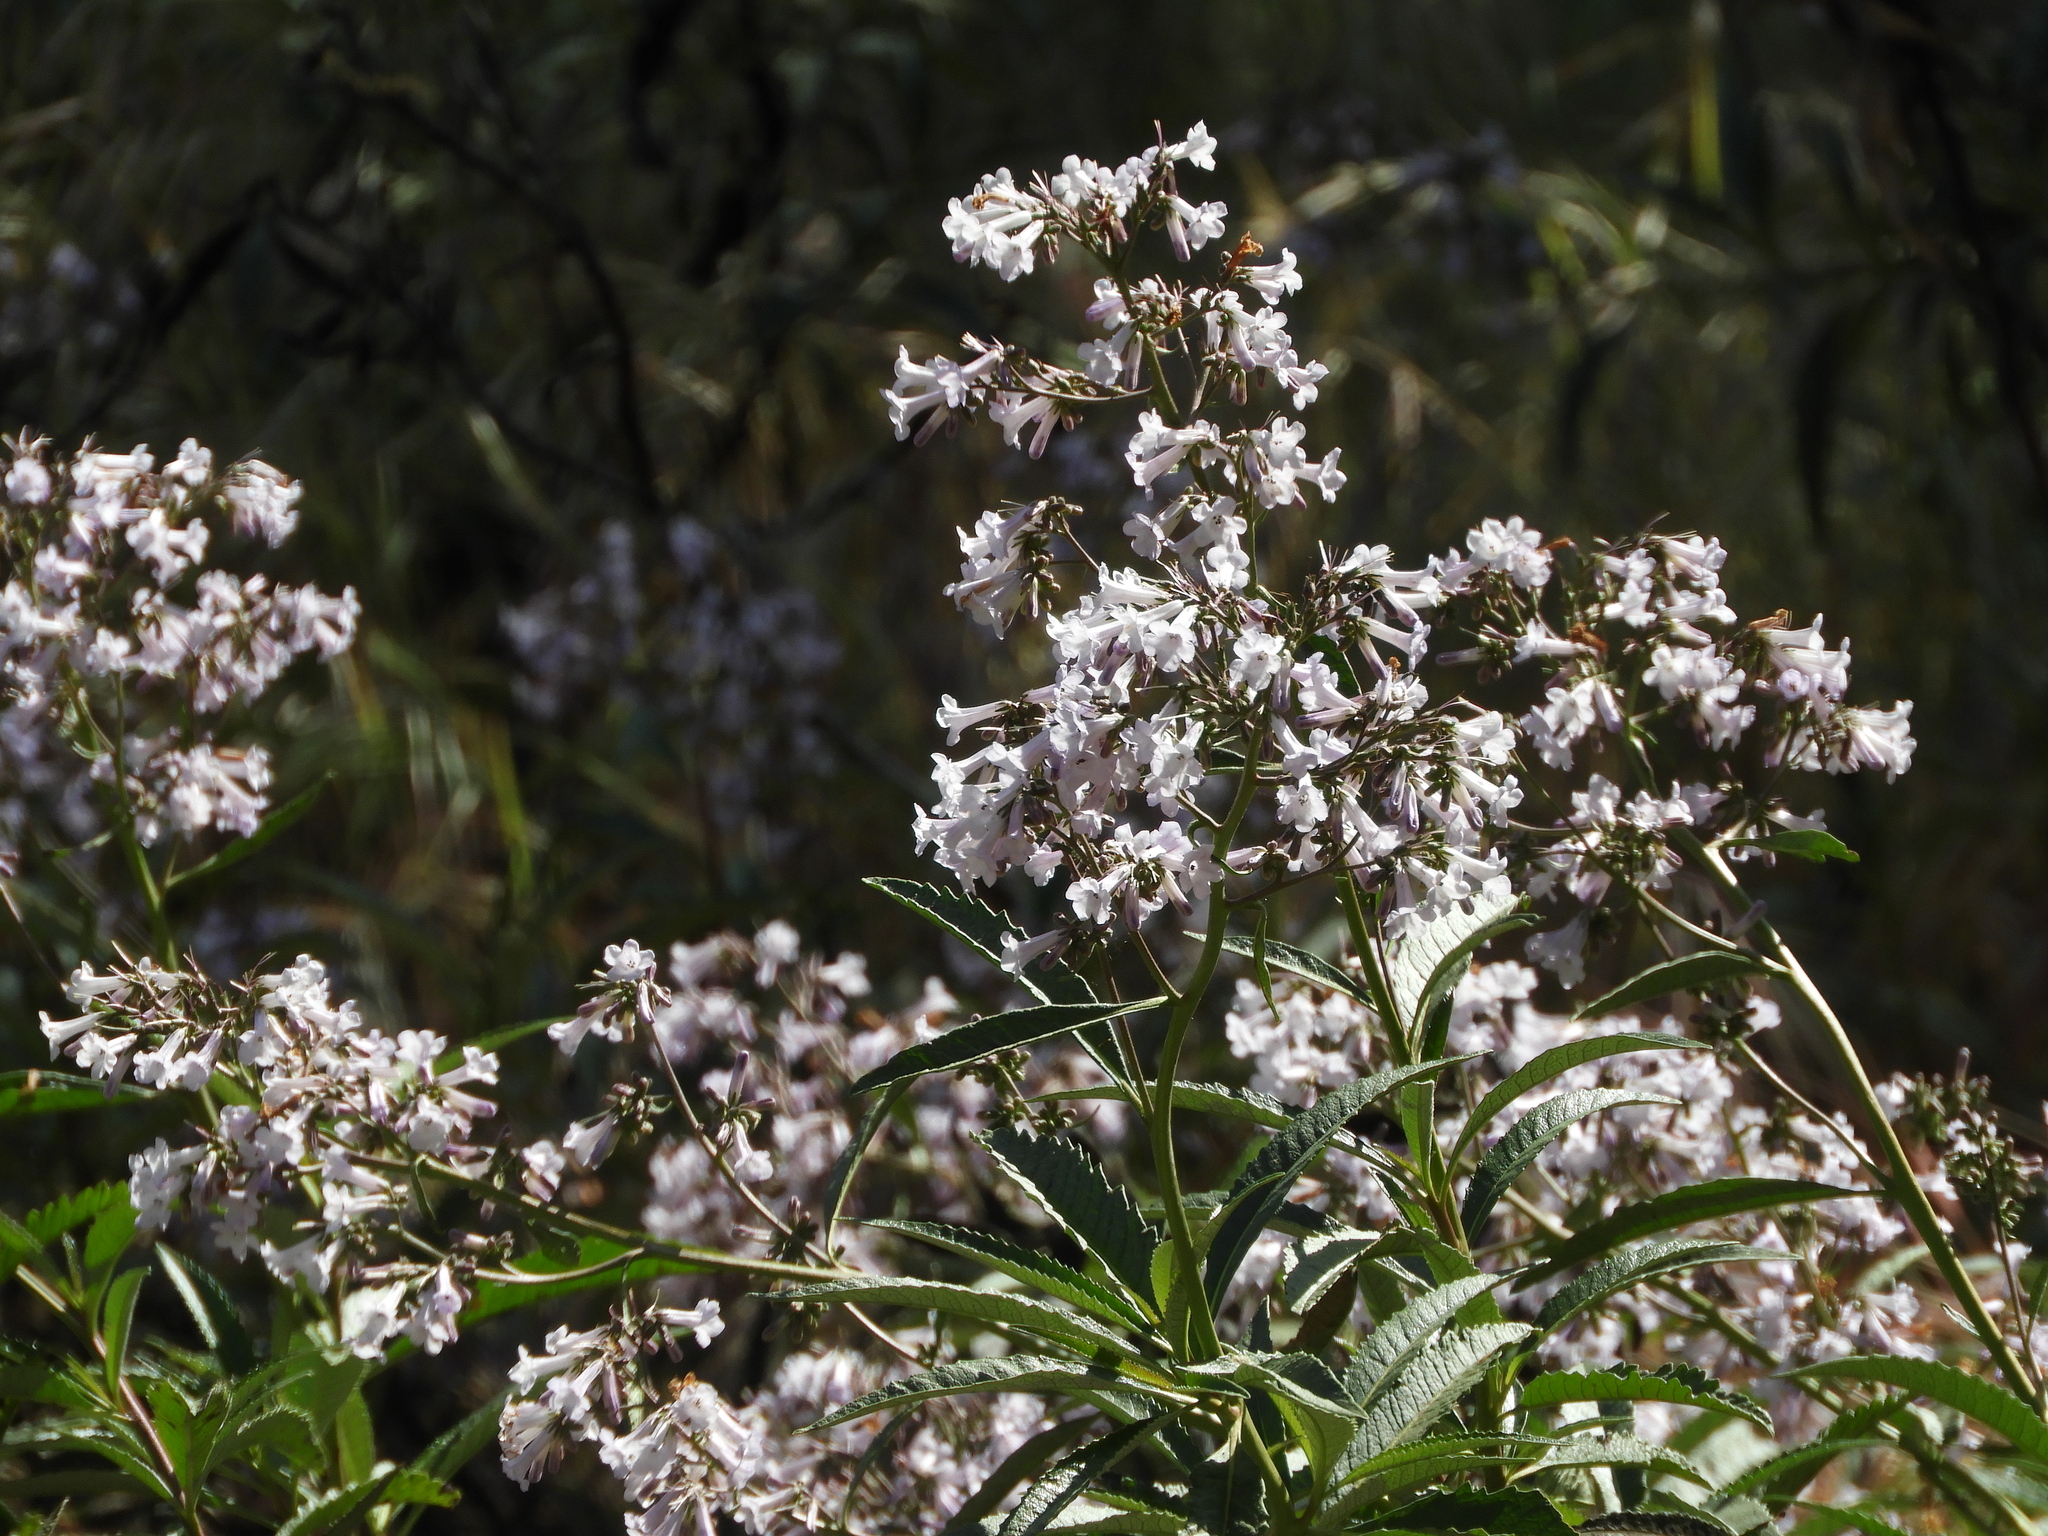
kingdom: Plantae
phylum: Tracheophyta
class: Magnoliopsida
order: Boraginales
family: Namaceae
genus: Eriodictyon
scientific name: Eriodictyon californicum
